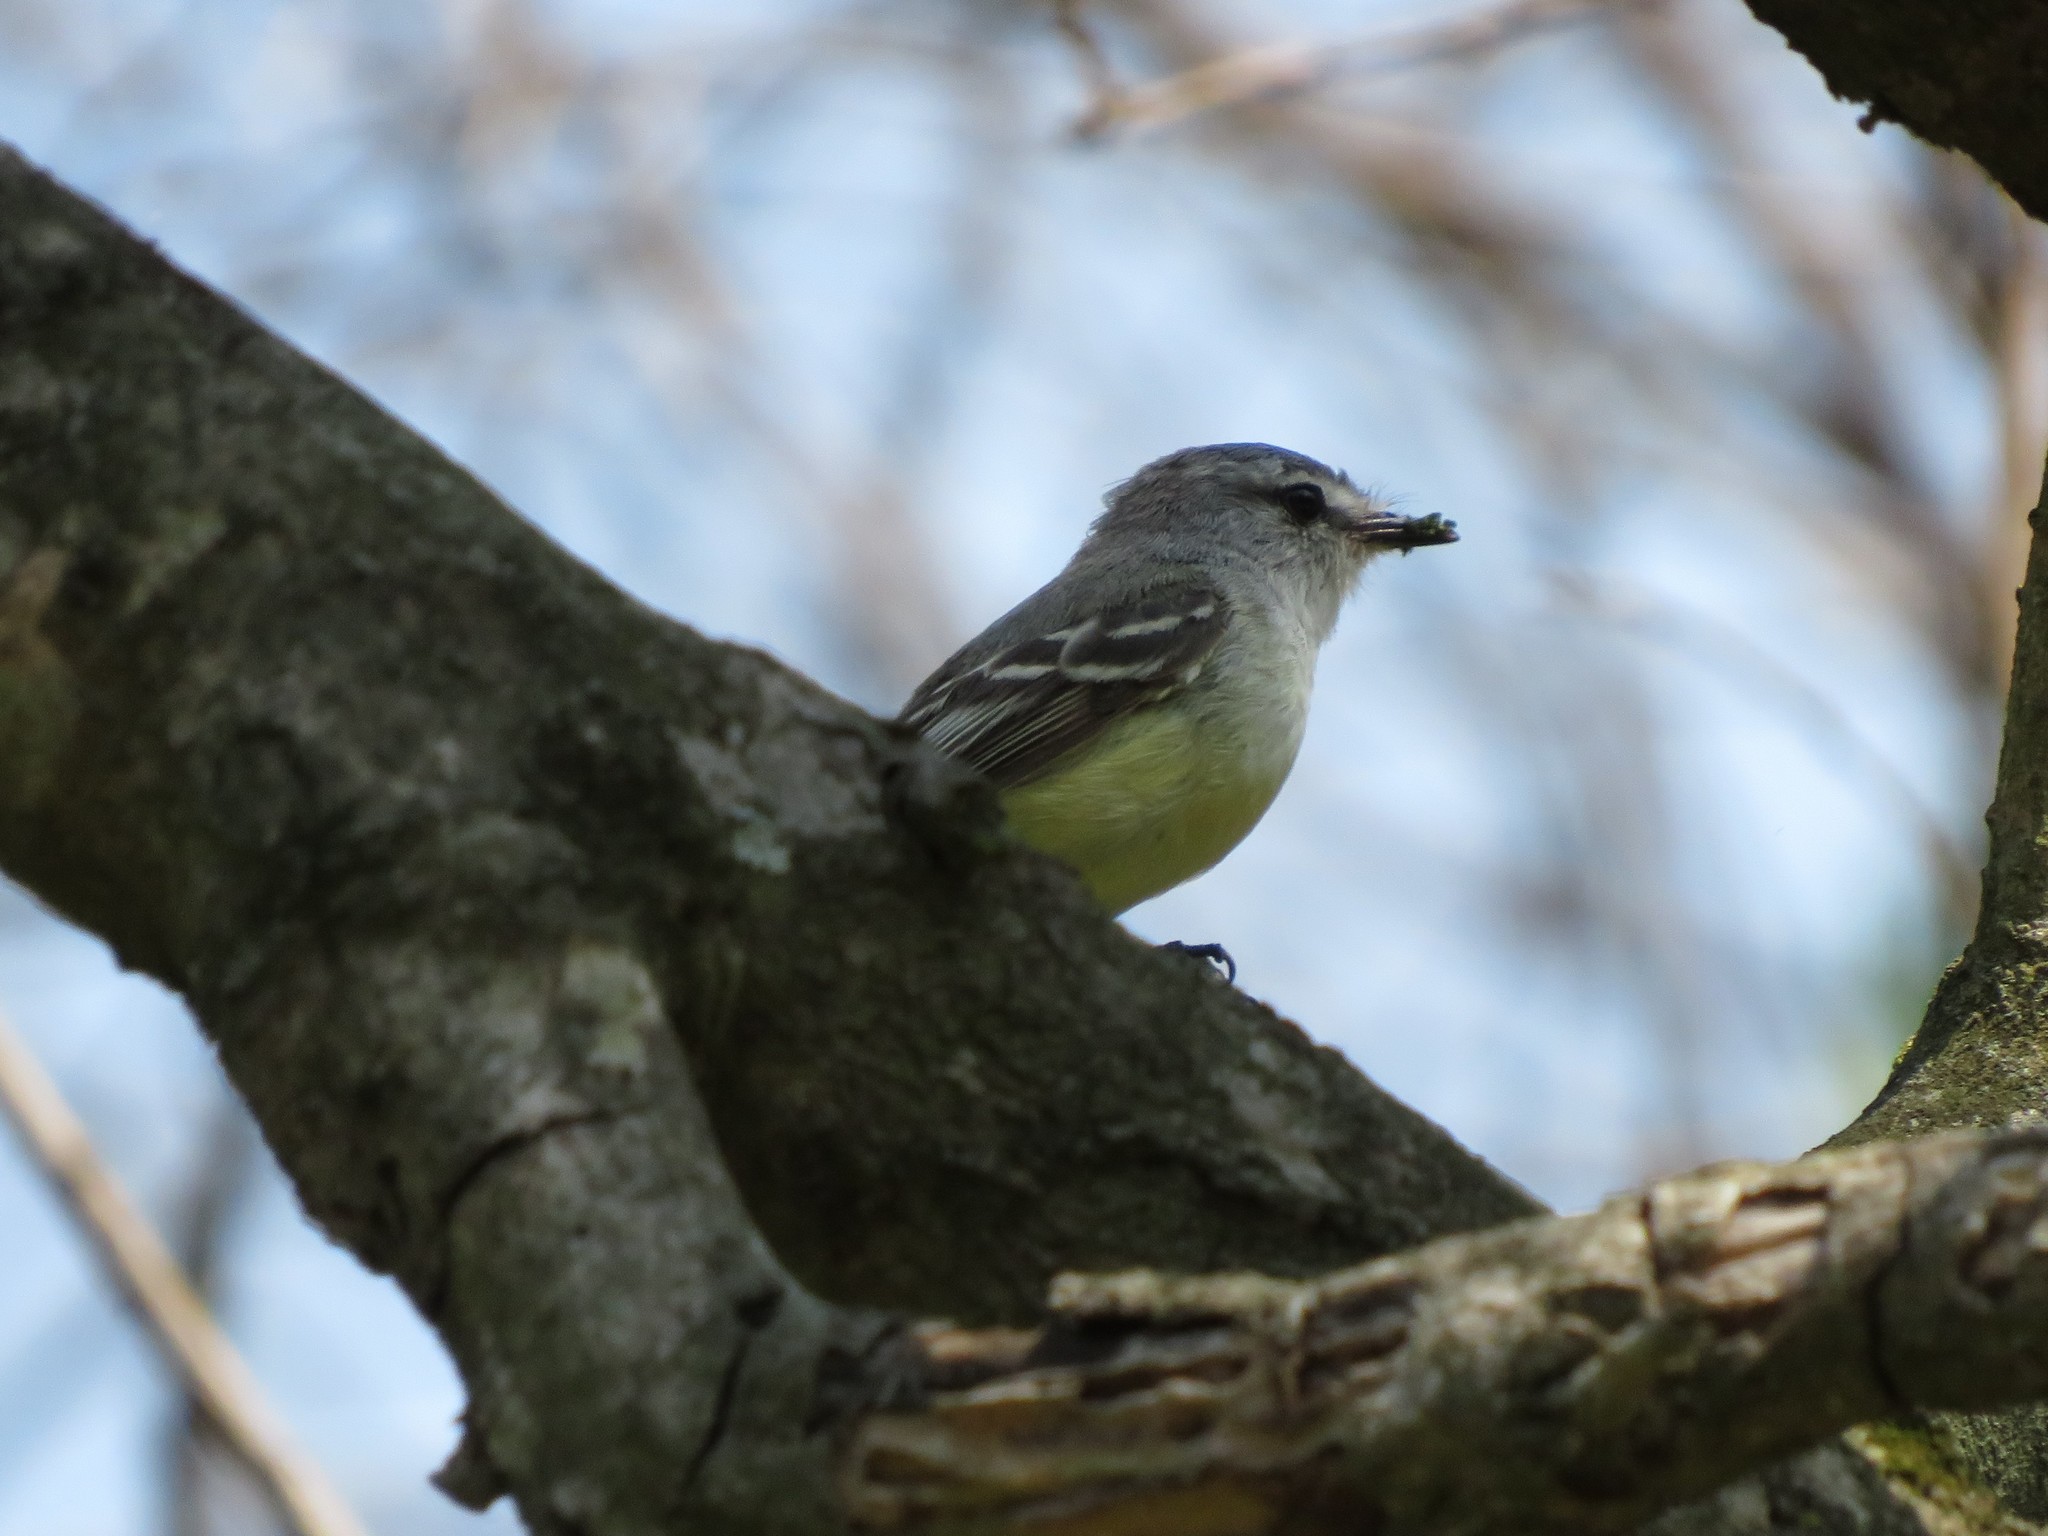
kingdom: Animalia
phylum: Chordata
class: Aves
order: Passeriformes
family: Tyrannidae
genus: Serpophaga
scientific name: Serpophaga subcristata
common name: White-crested tyrannulet
